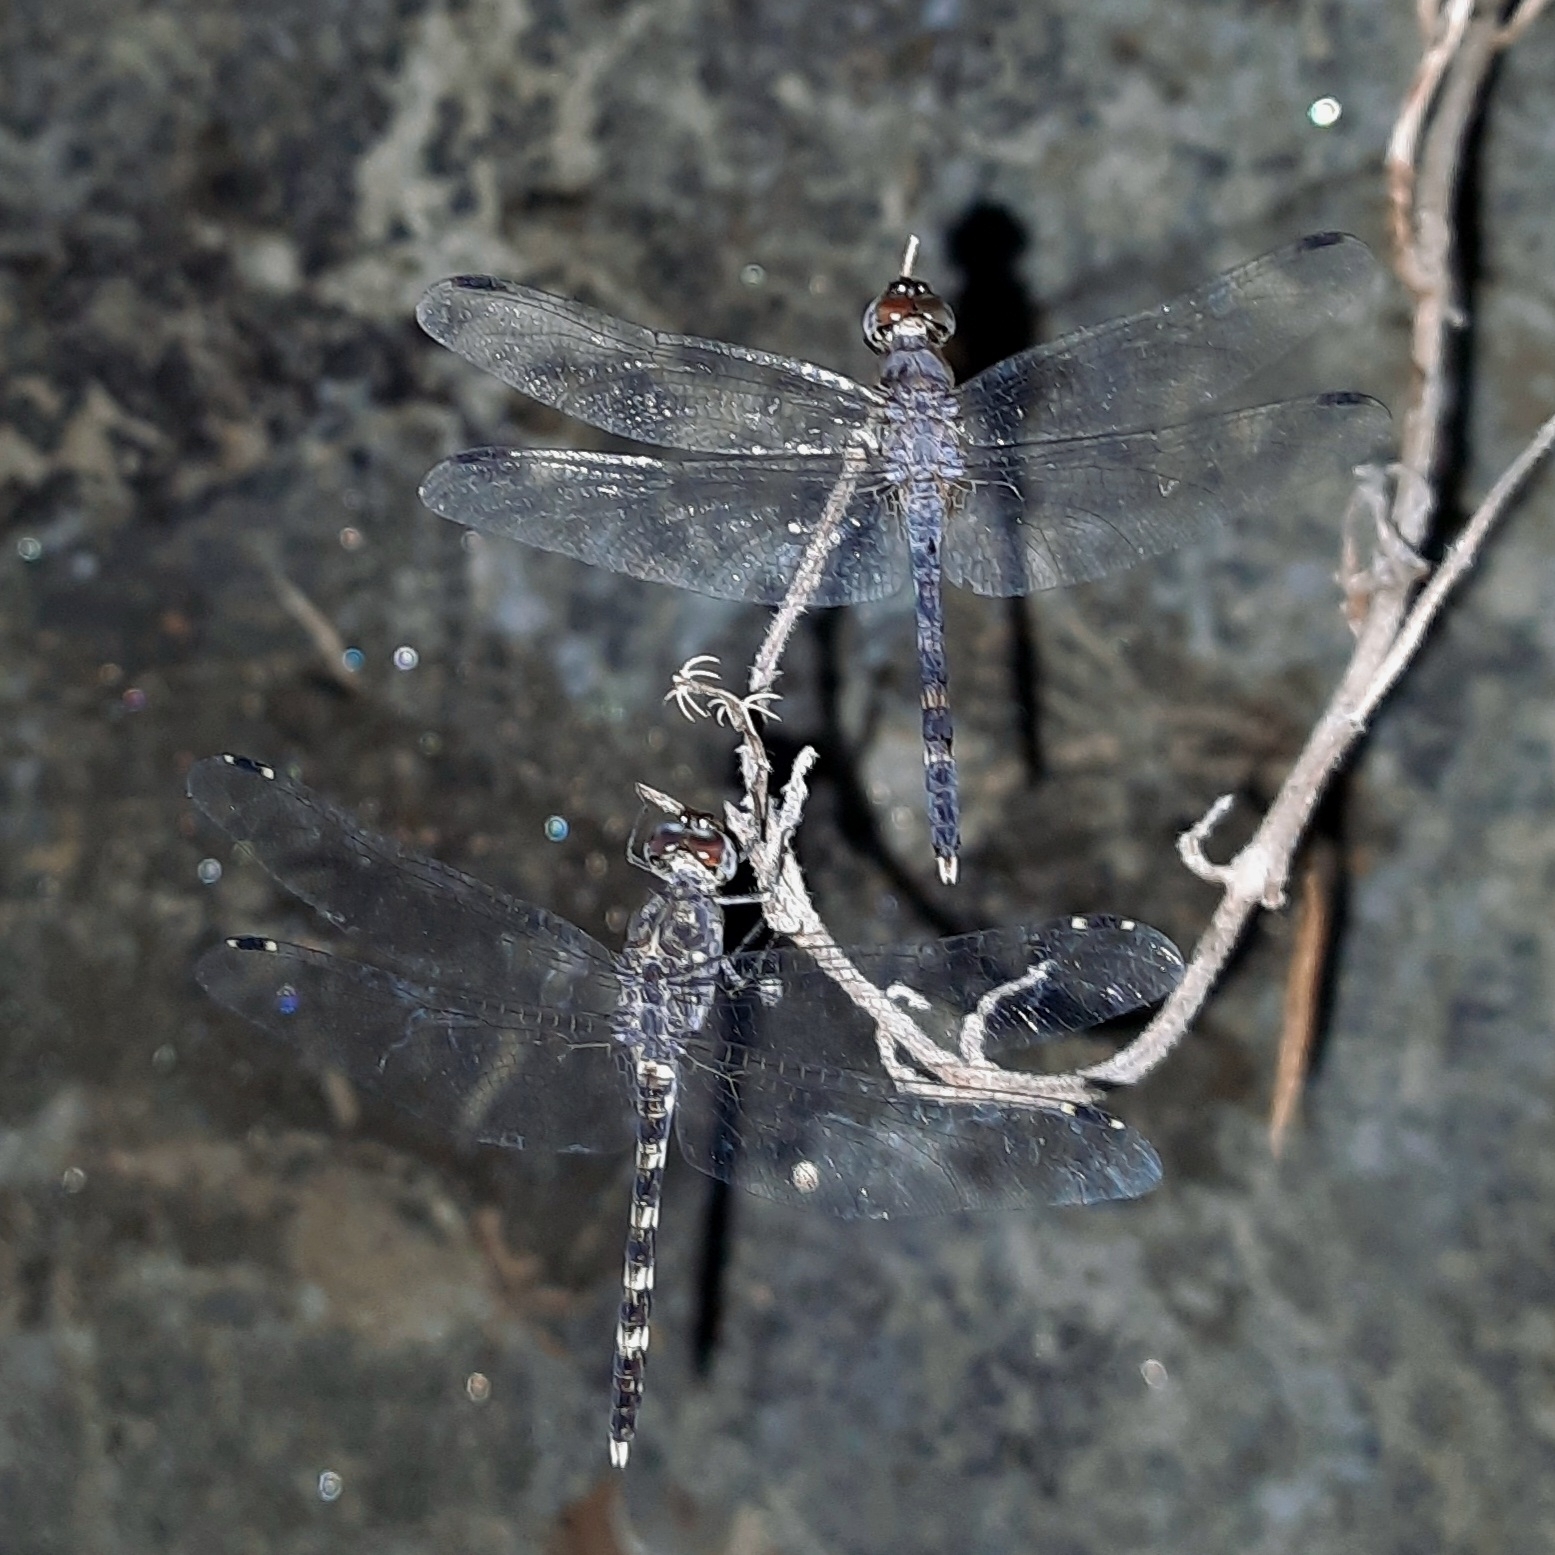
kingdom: Animalia
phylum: Arthropoda
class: Insecta
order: Odonata
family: Libellulidae
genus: Bradinopyga
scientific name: Bradinopyga geminata
